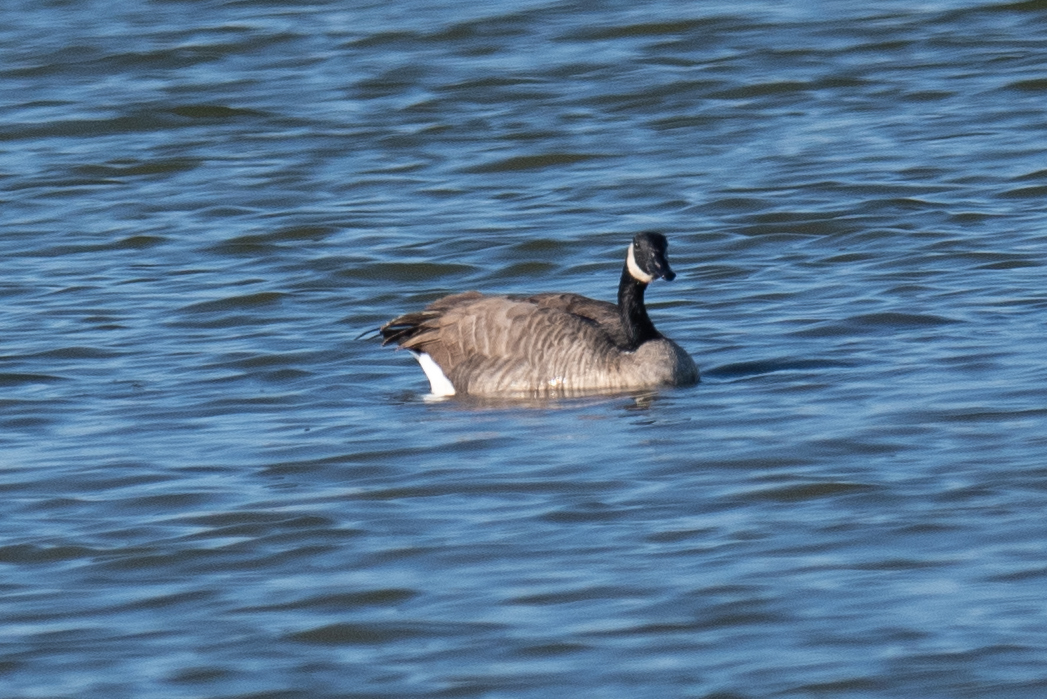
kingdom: Animalia
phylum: Chordata
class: Aves
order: Anseriformes
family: Anatidae
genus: Branta
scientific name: Branta canadensis
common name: Canada goose
